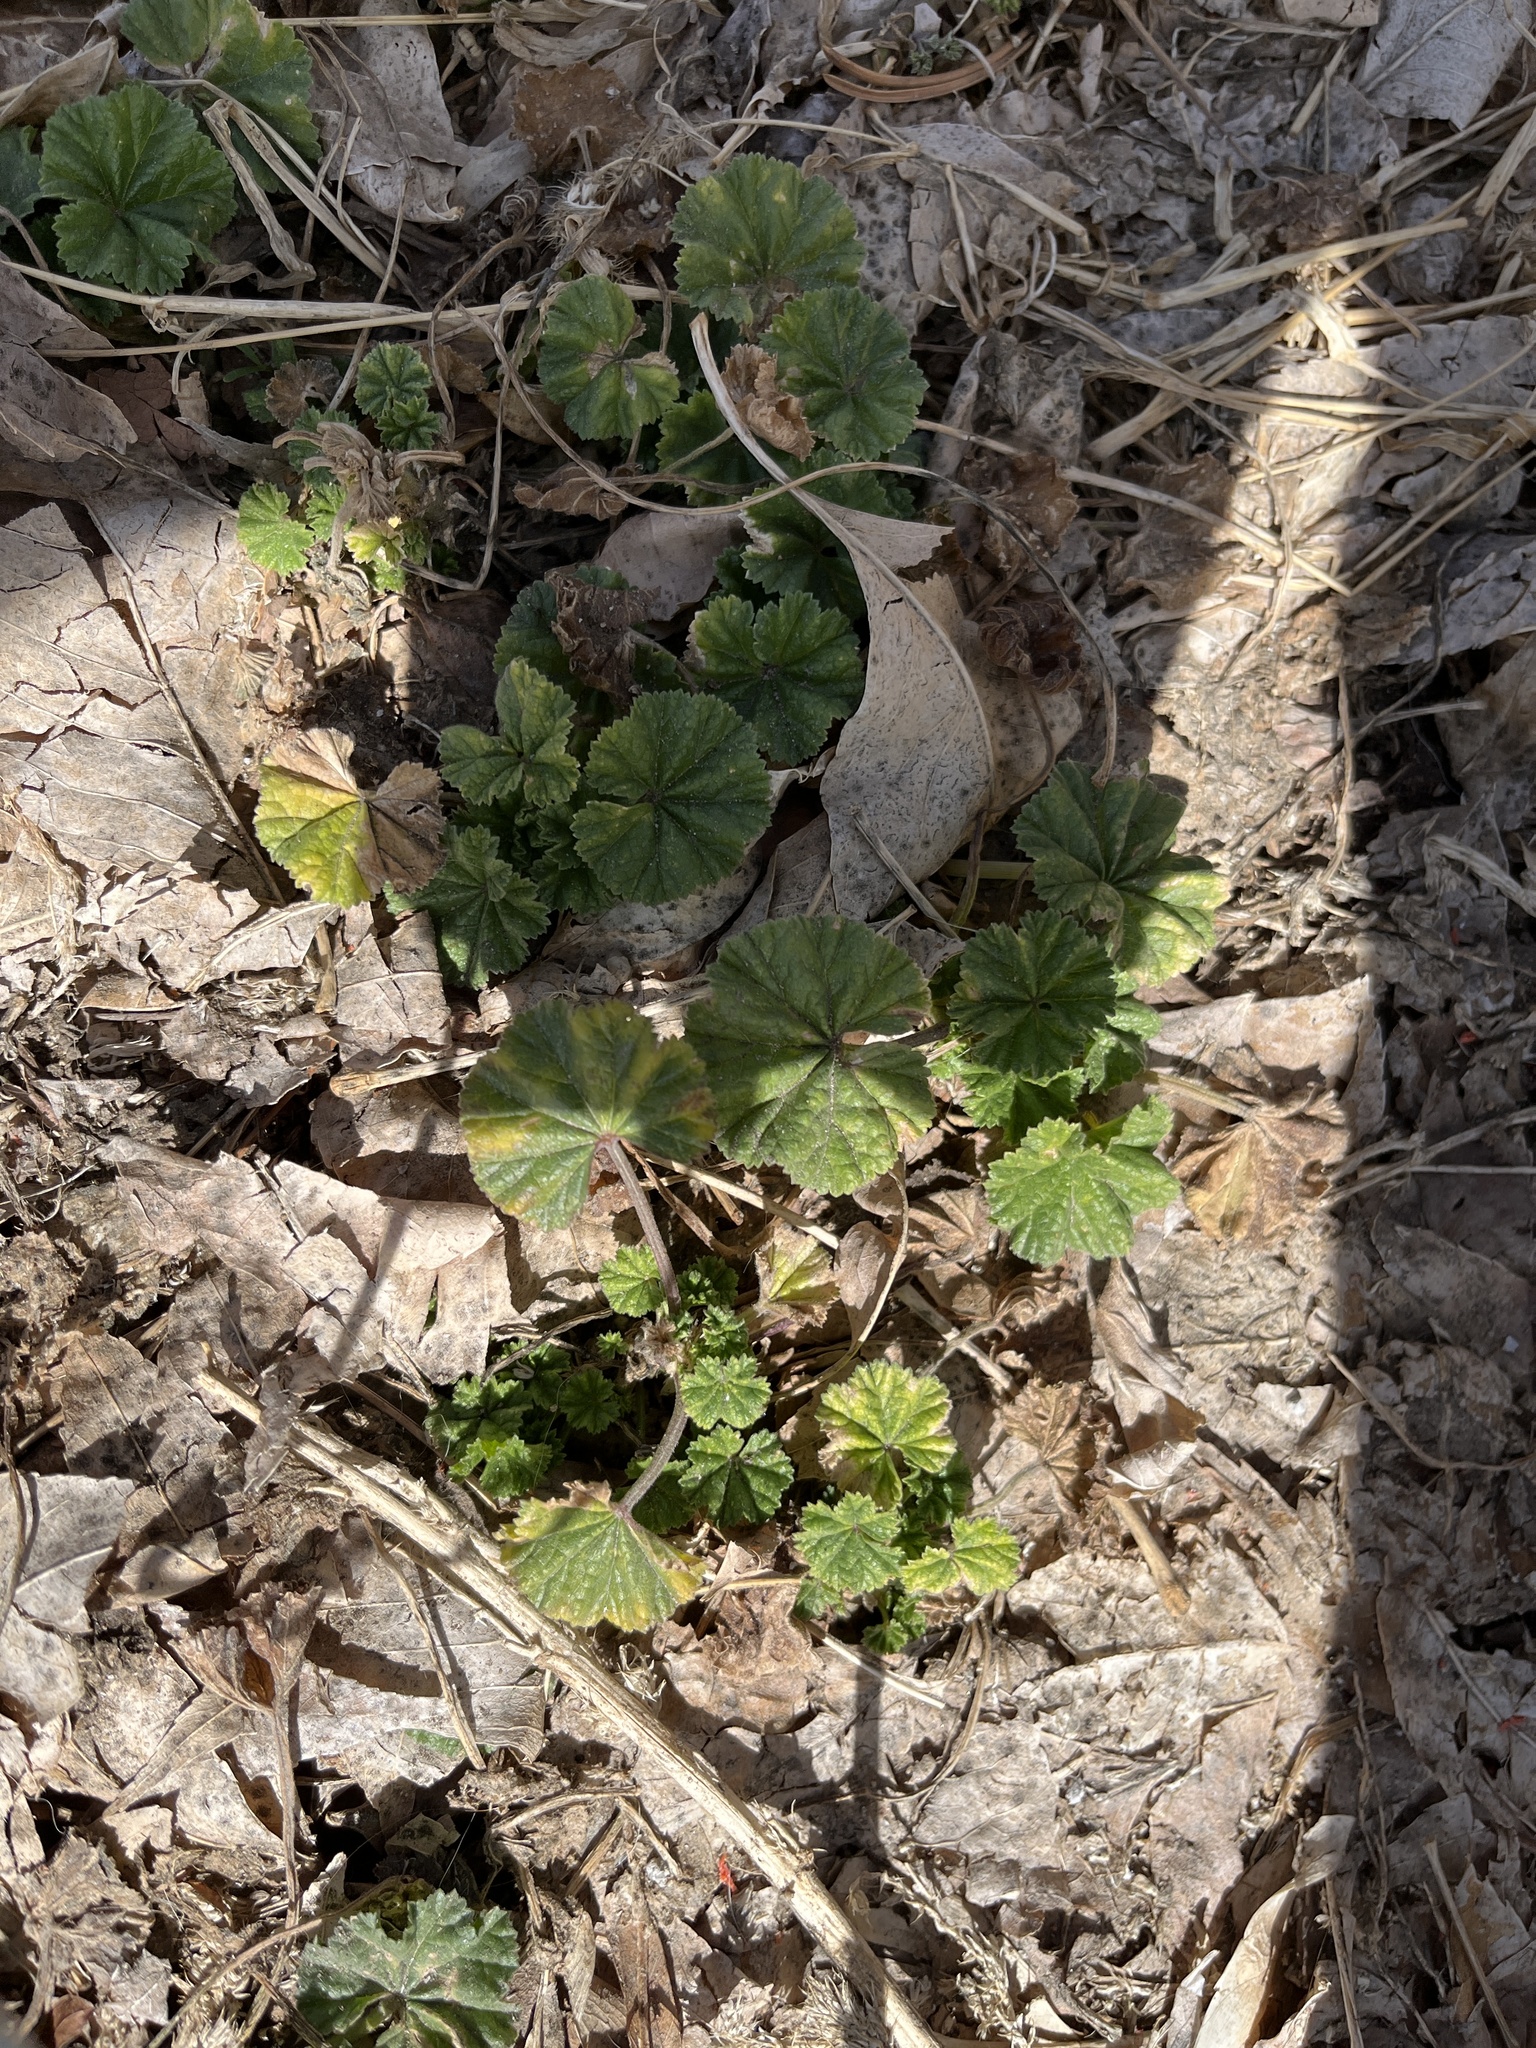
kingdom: Plantae
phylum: Tracheophyta
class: Magnoliopsida
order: Malvales
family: Malvaceae
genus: Malva
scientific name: Malva neglecta
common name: Common mallow
